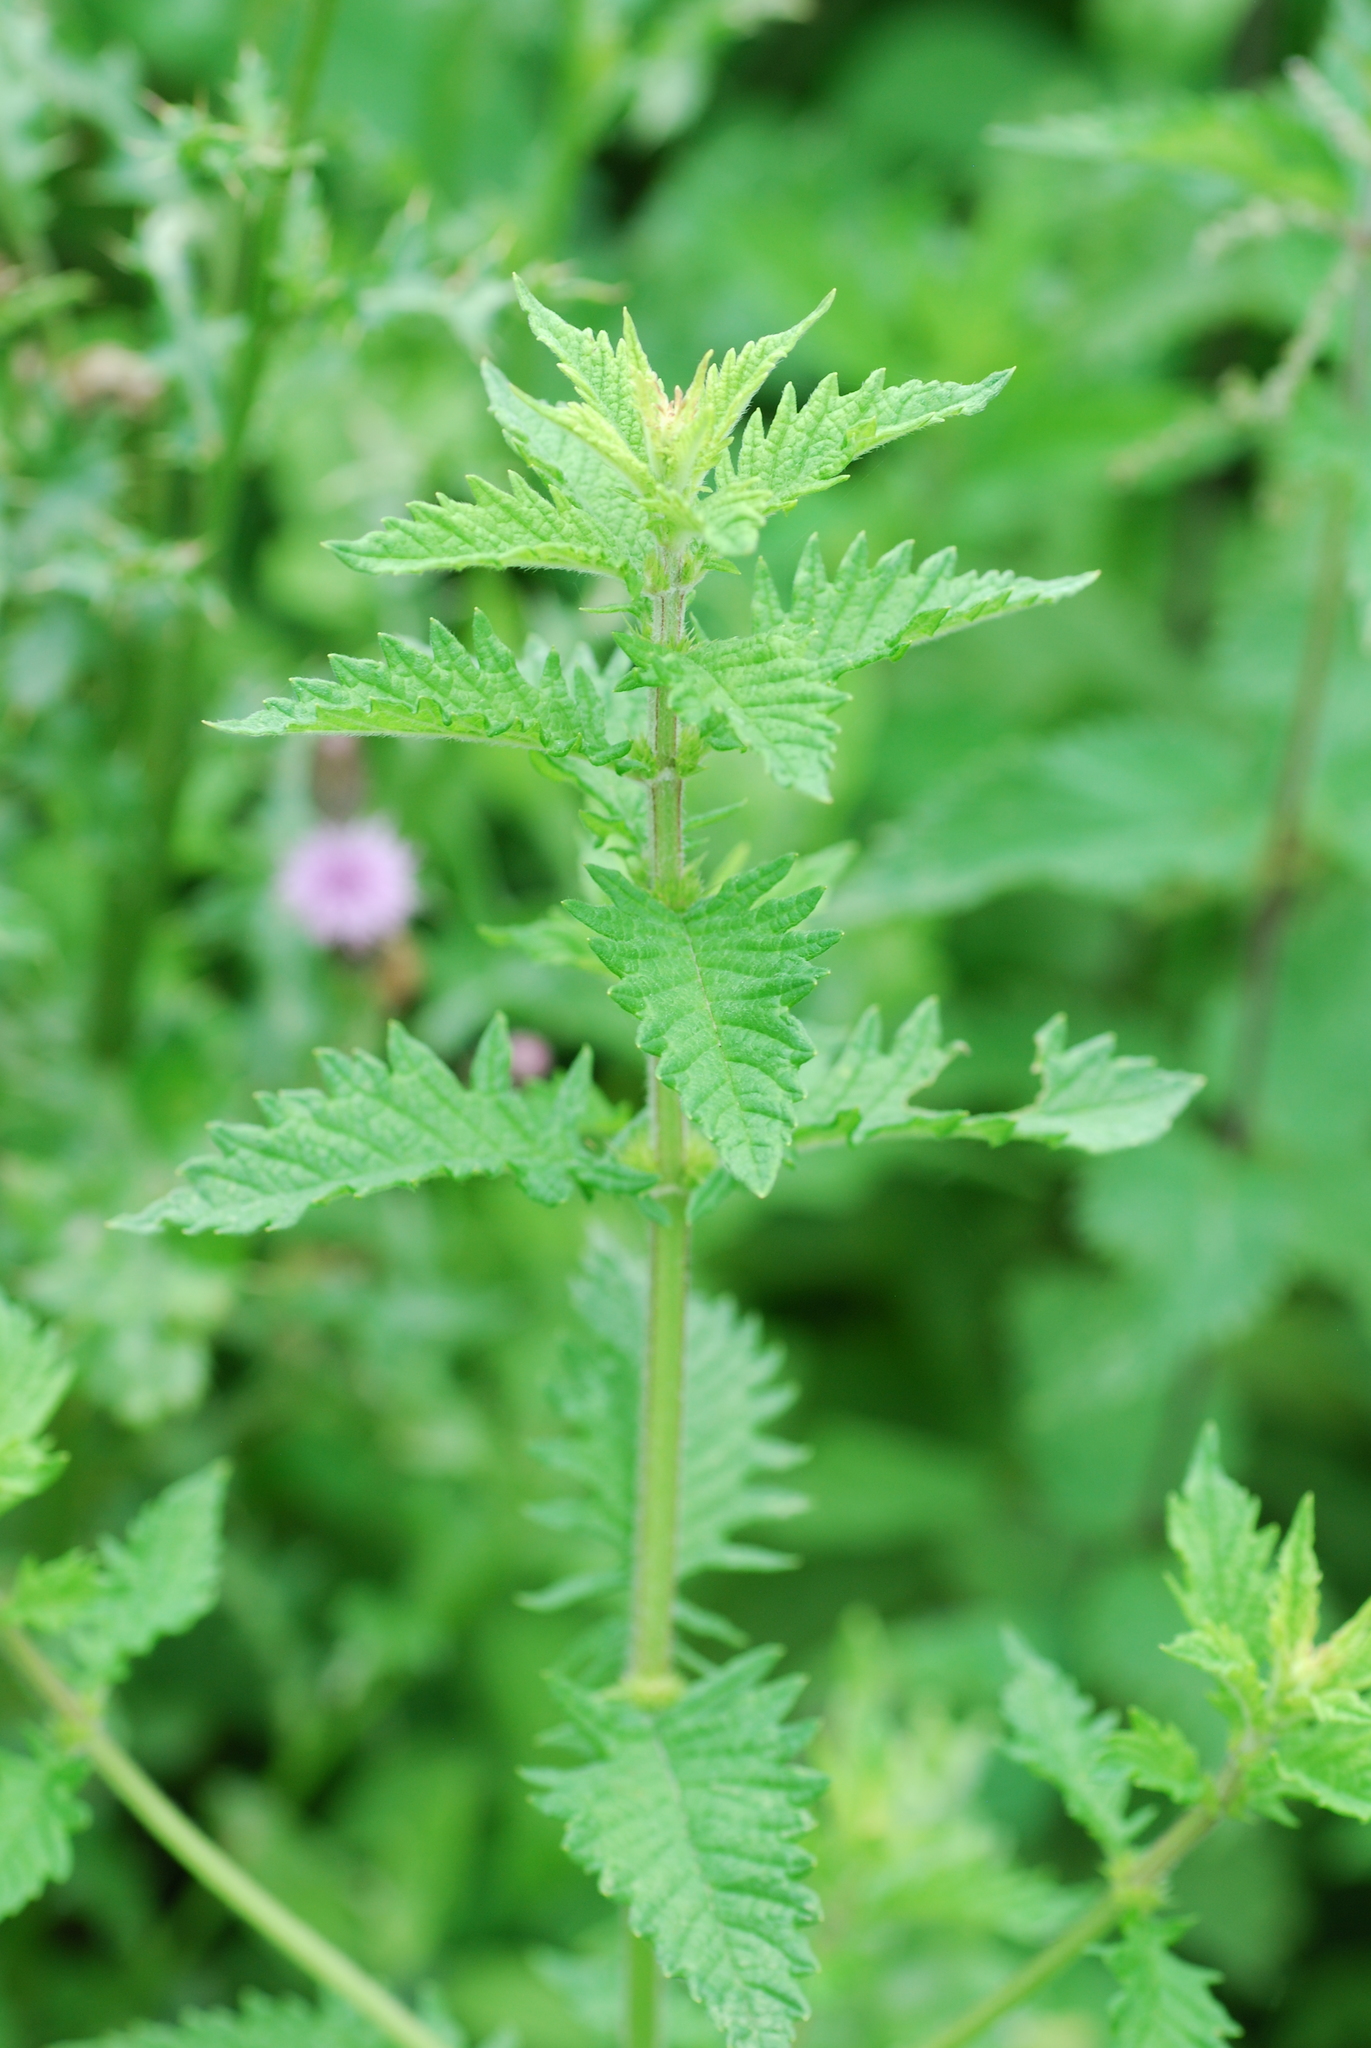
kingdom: Plantae
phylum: Tracheophyta
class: Magnoliopsida
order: Lamiales
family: Lamiaceae
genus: Lycopus
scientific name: Lycopus europaeus
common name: European bugleweed
